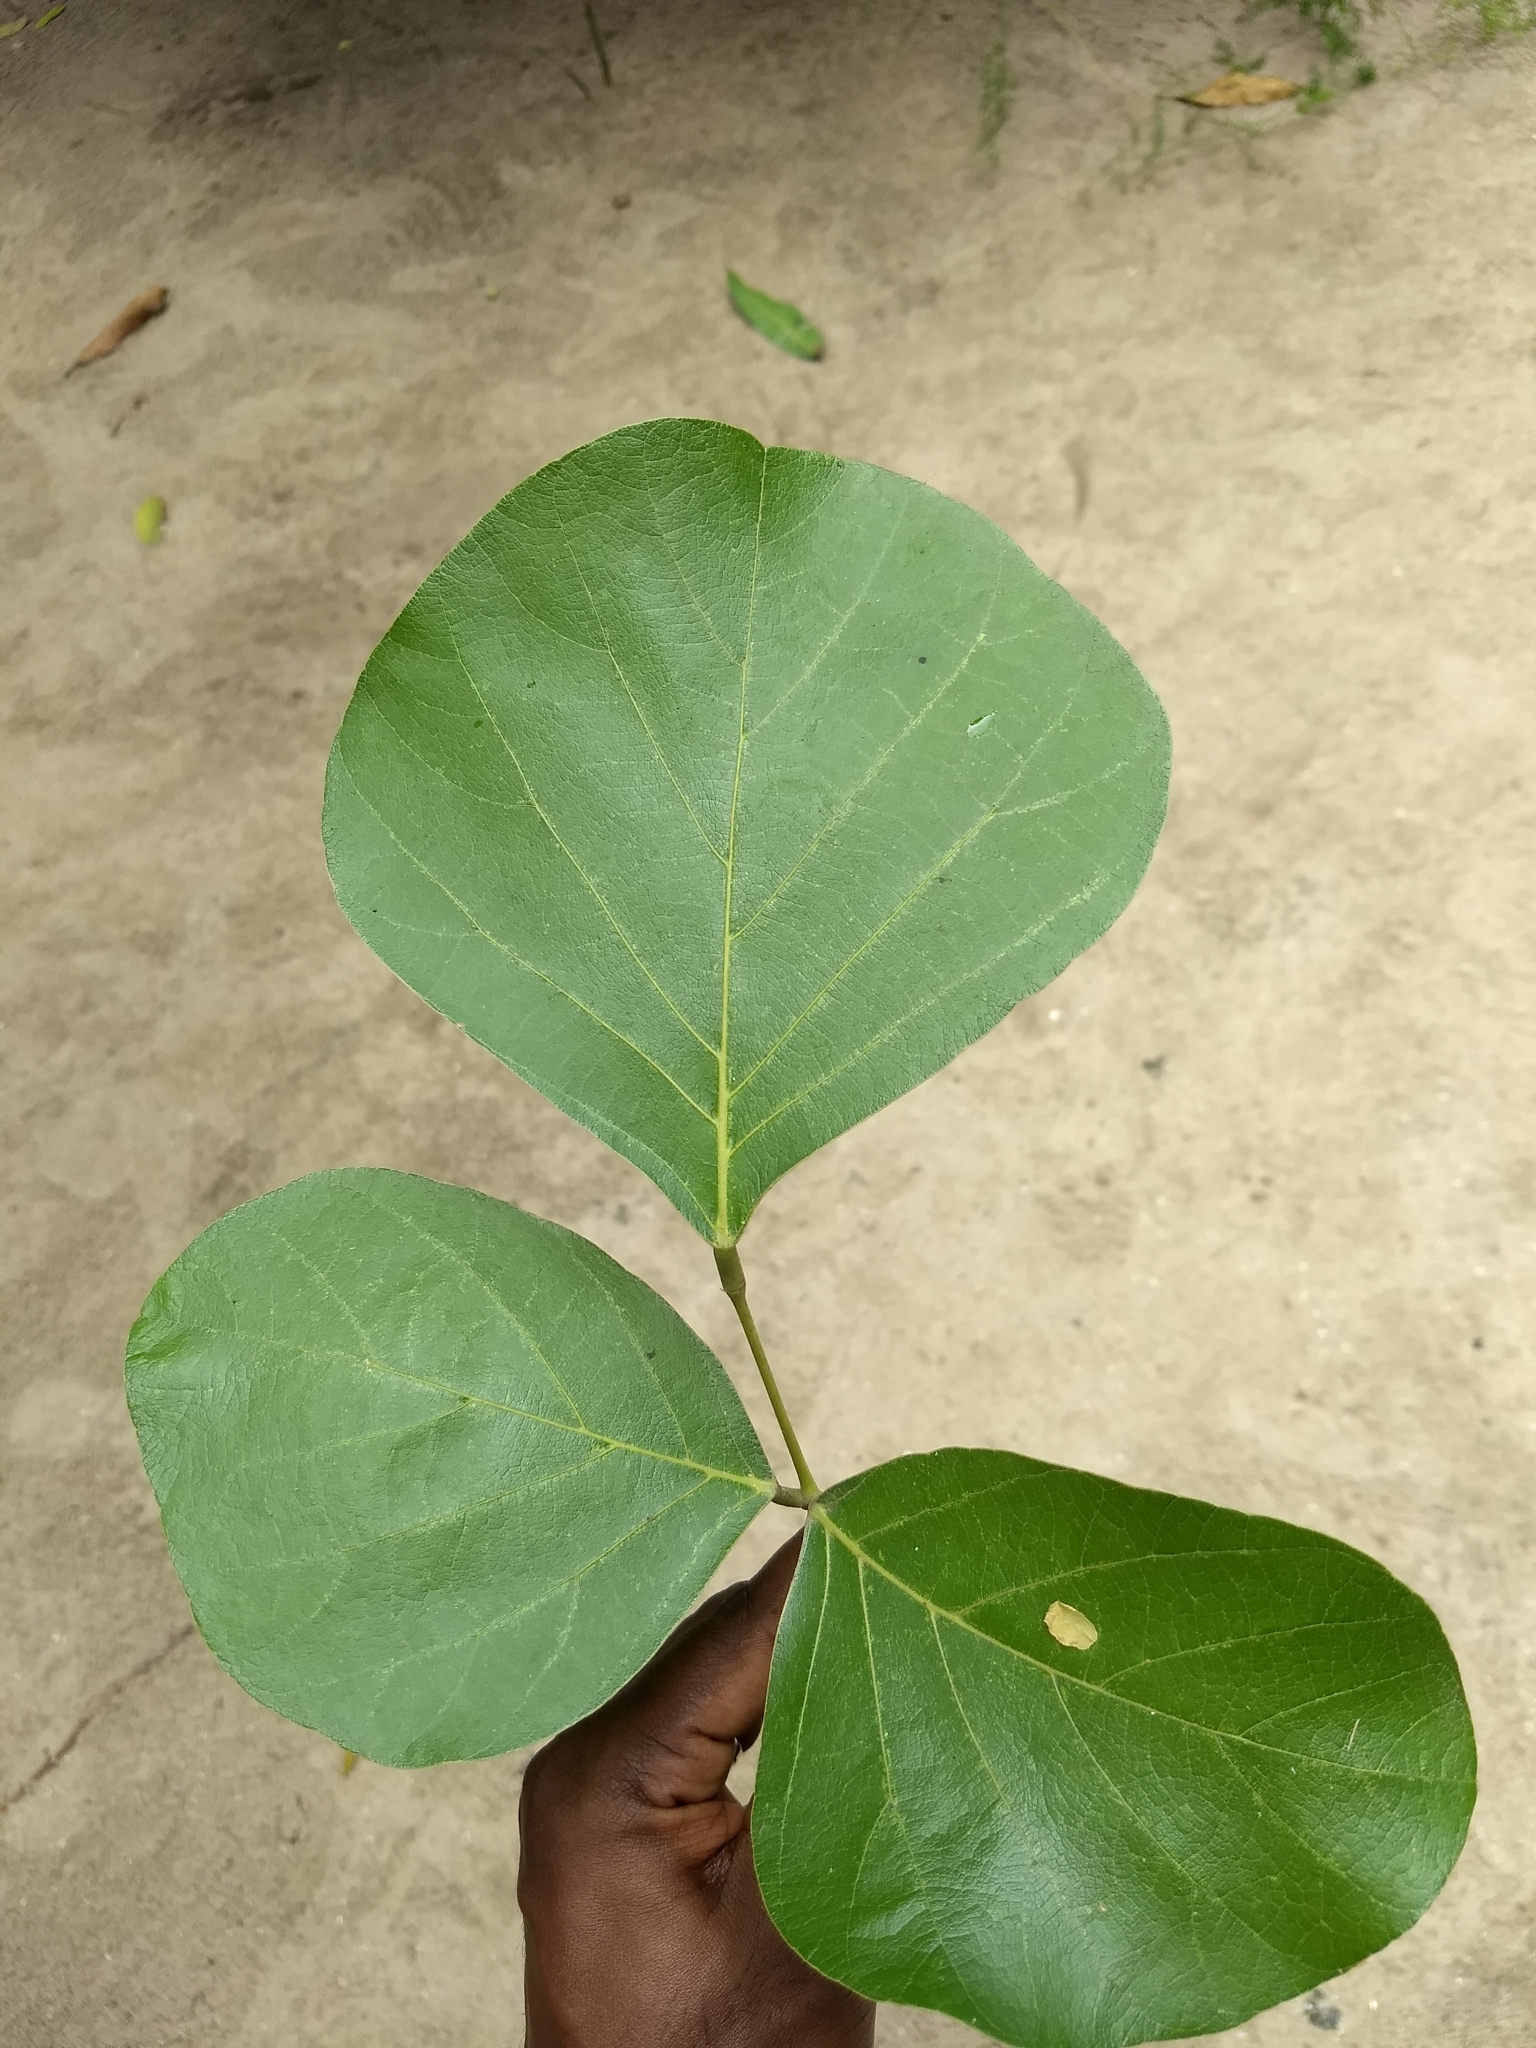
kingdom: Plantae
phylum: Tracheophyta
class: Magnoliopsida
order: Fabales
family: Fabaceae
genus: Butea
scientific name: Butea monosperma
